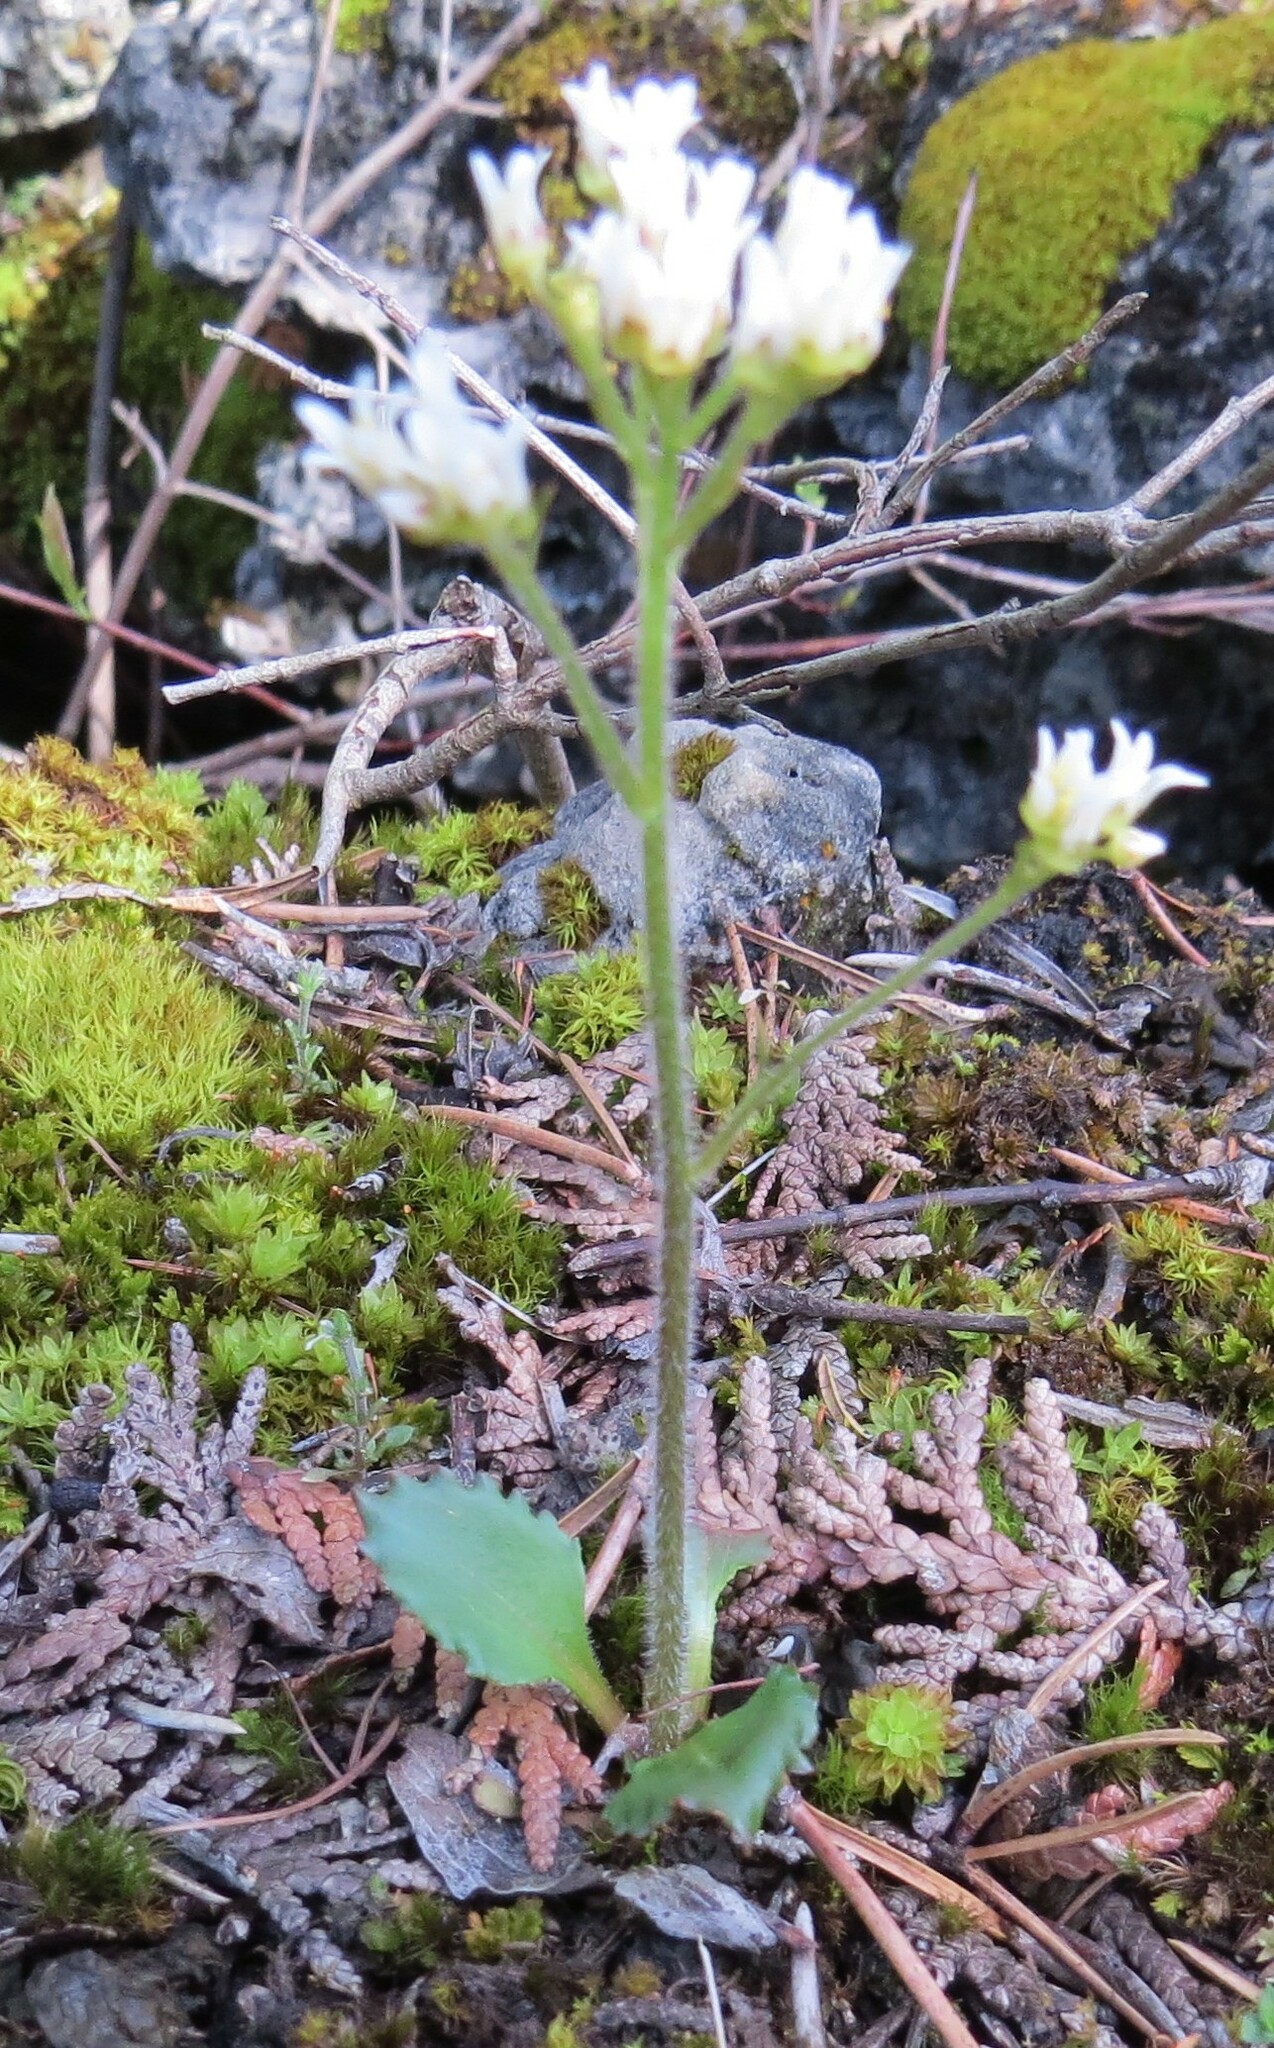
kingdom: Plantae
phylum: Tracheophyta
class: Magnoliopsida
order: Saxifragales
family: Saxifragaceae
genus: Micranthes
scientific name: Micranthes virginiensis
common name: Early saxifrage
